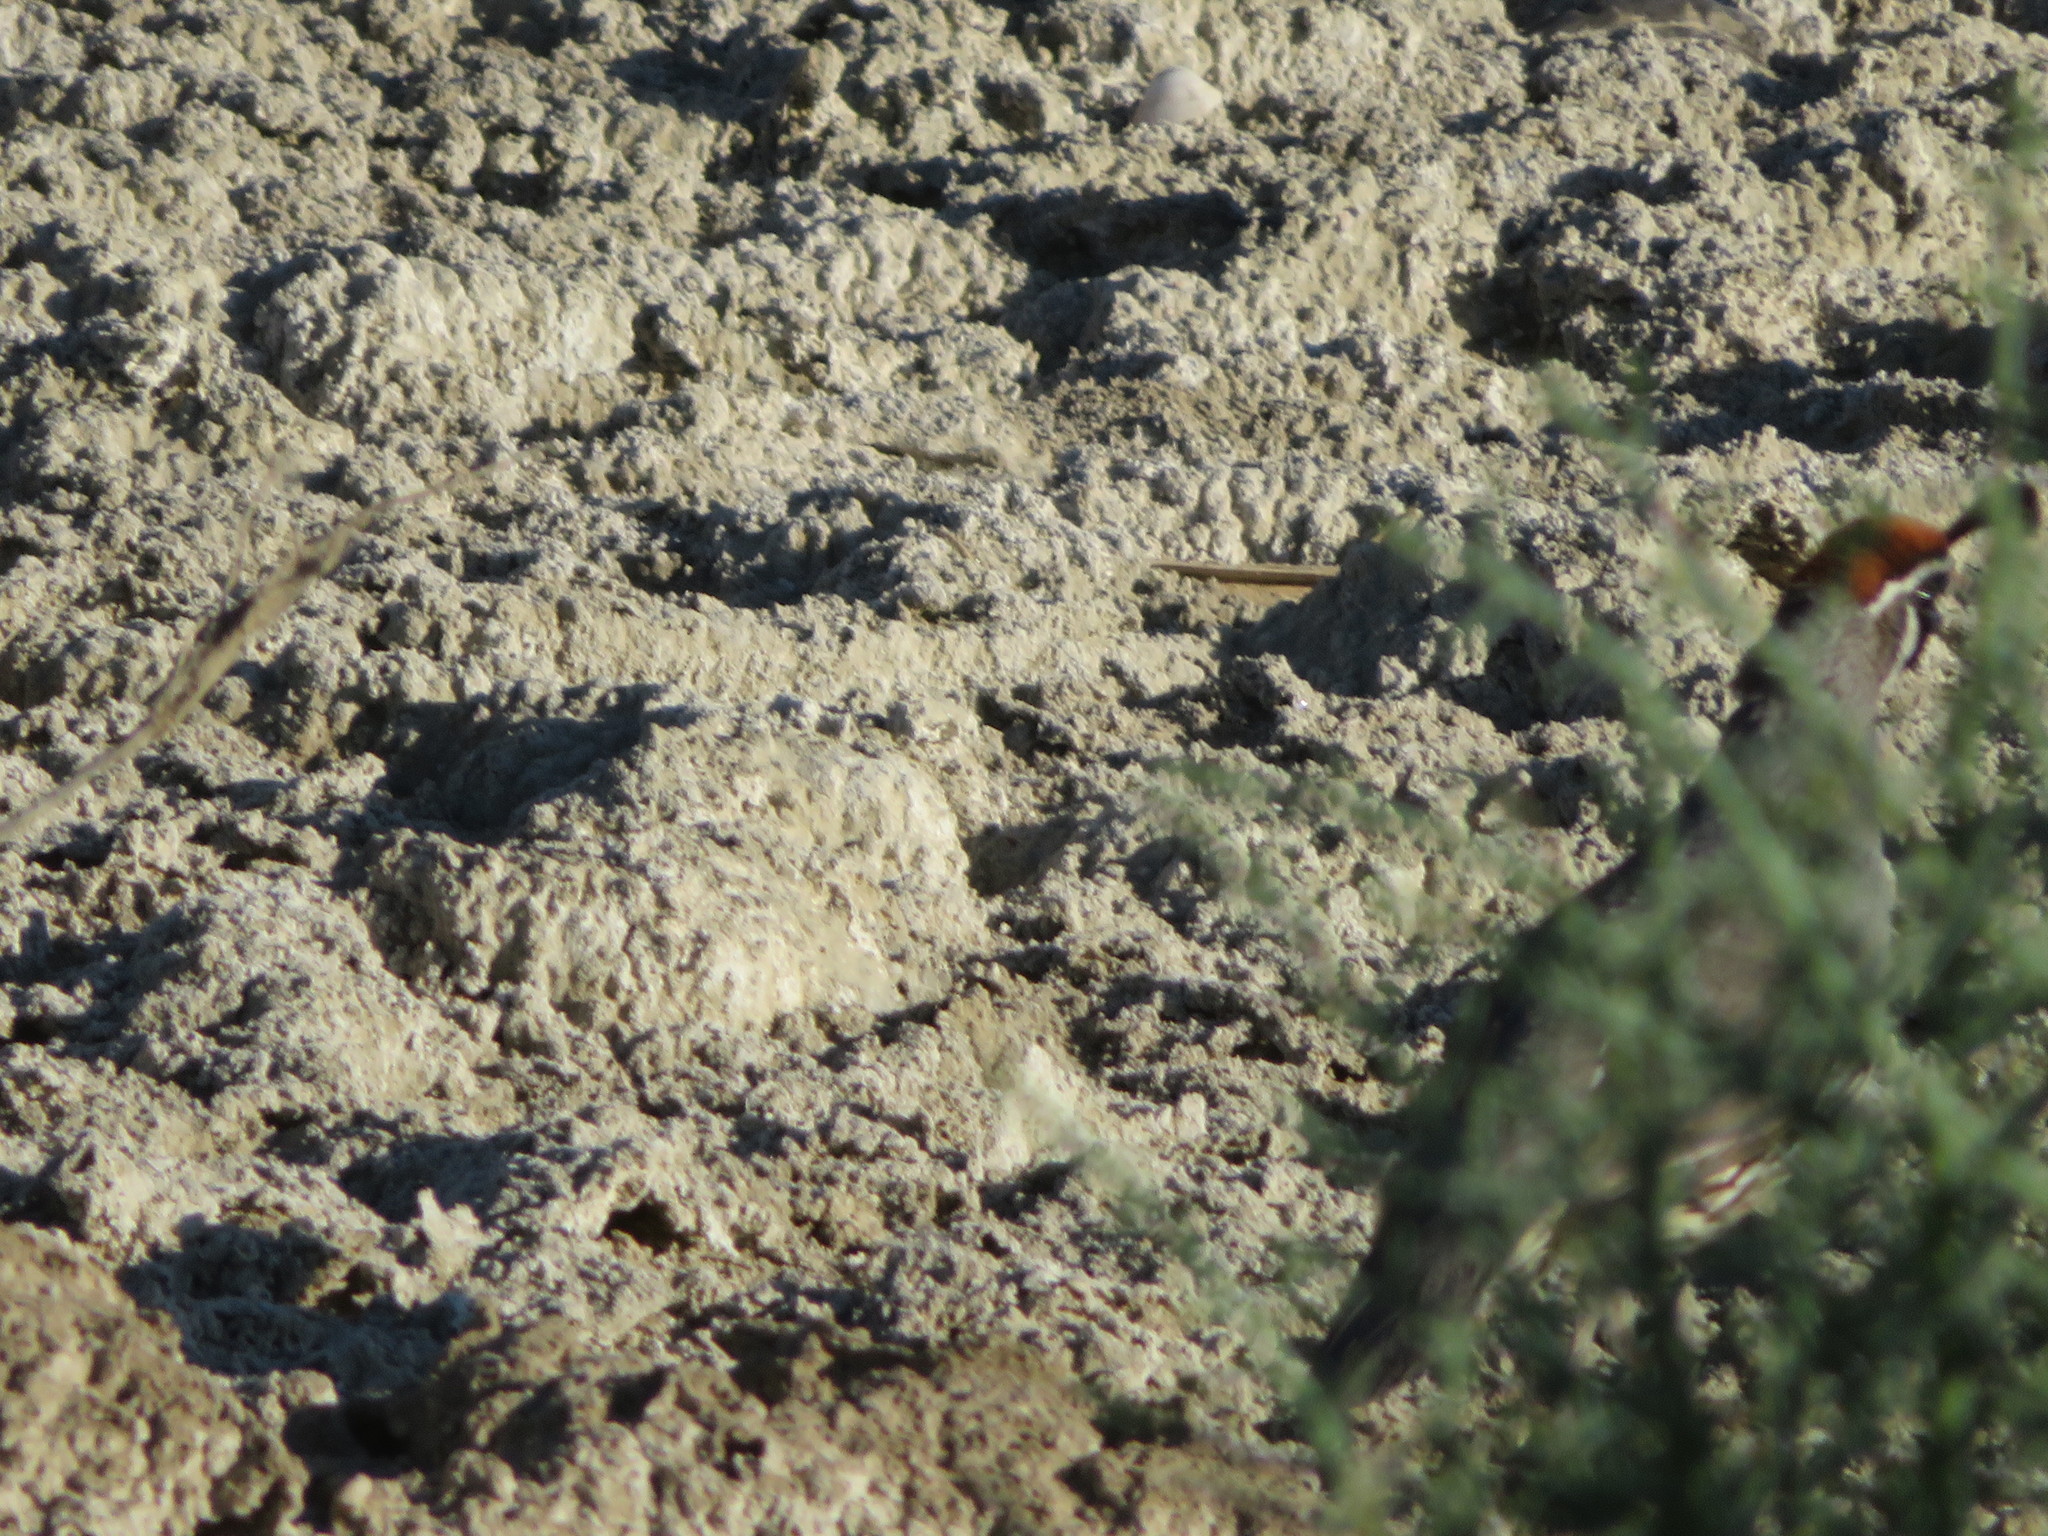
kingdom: Animalia
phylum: Chordata
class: Aves
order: Galliformes
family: Odontophoridae
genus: Callipepla
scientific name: Callipepla gambelii
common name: Gambel's quail
